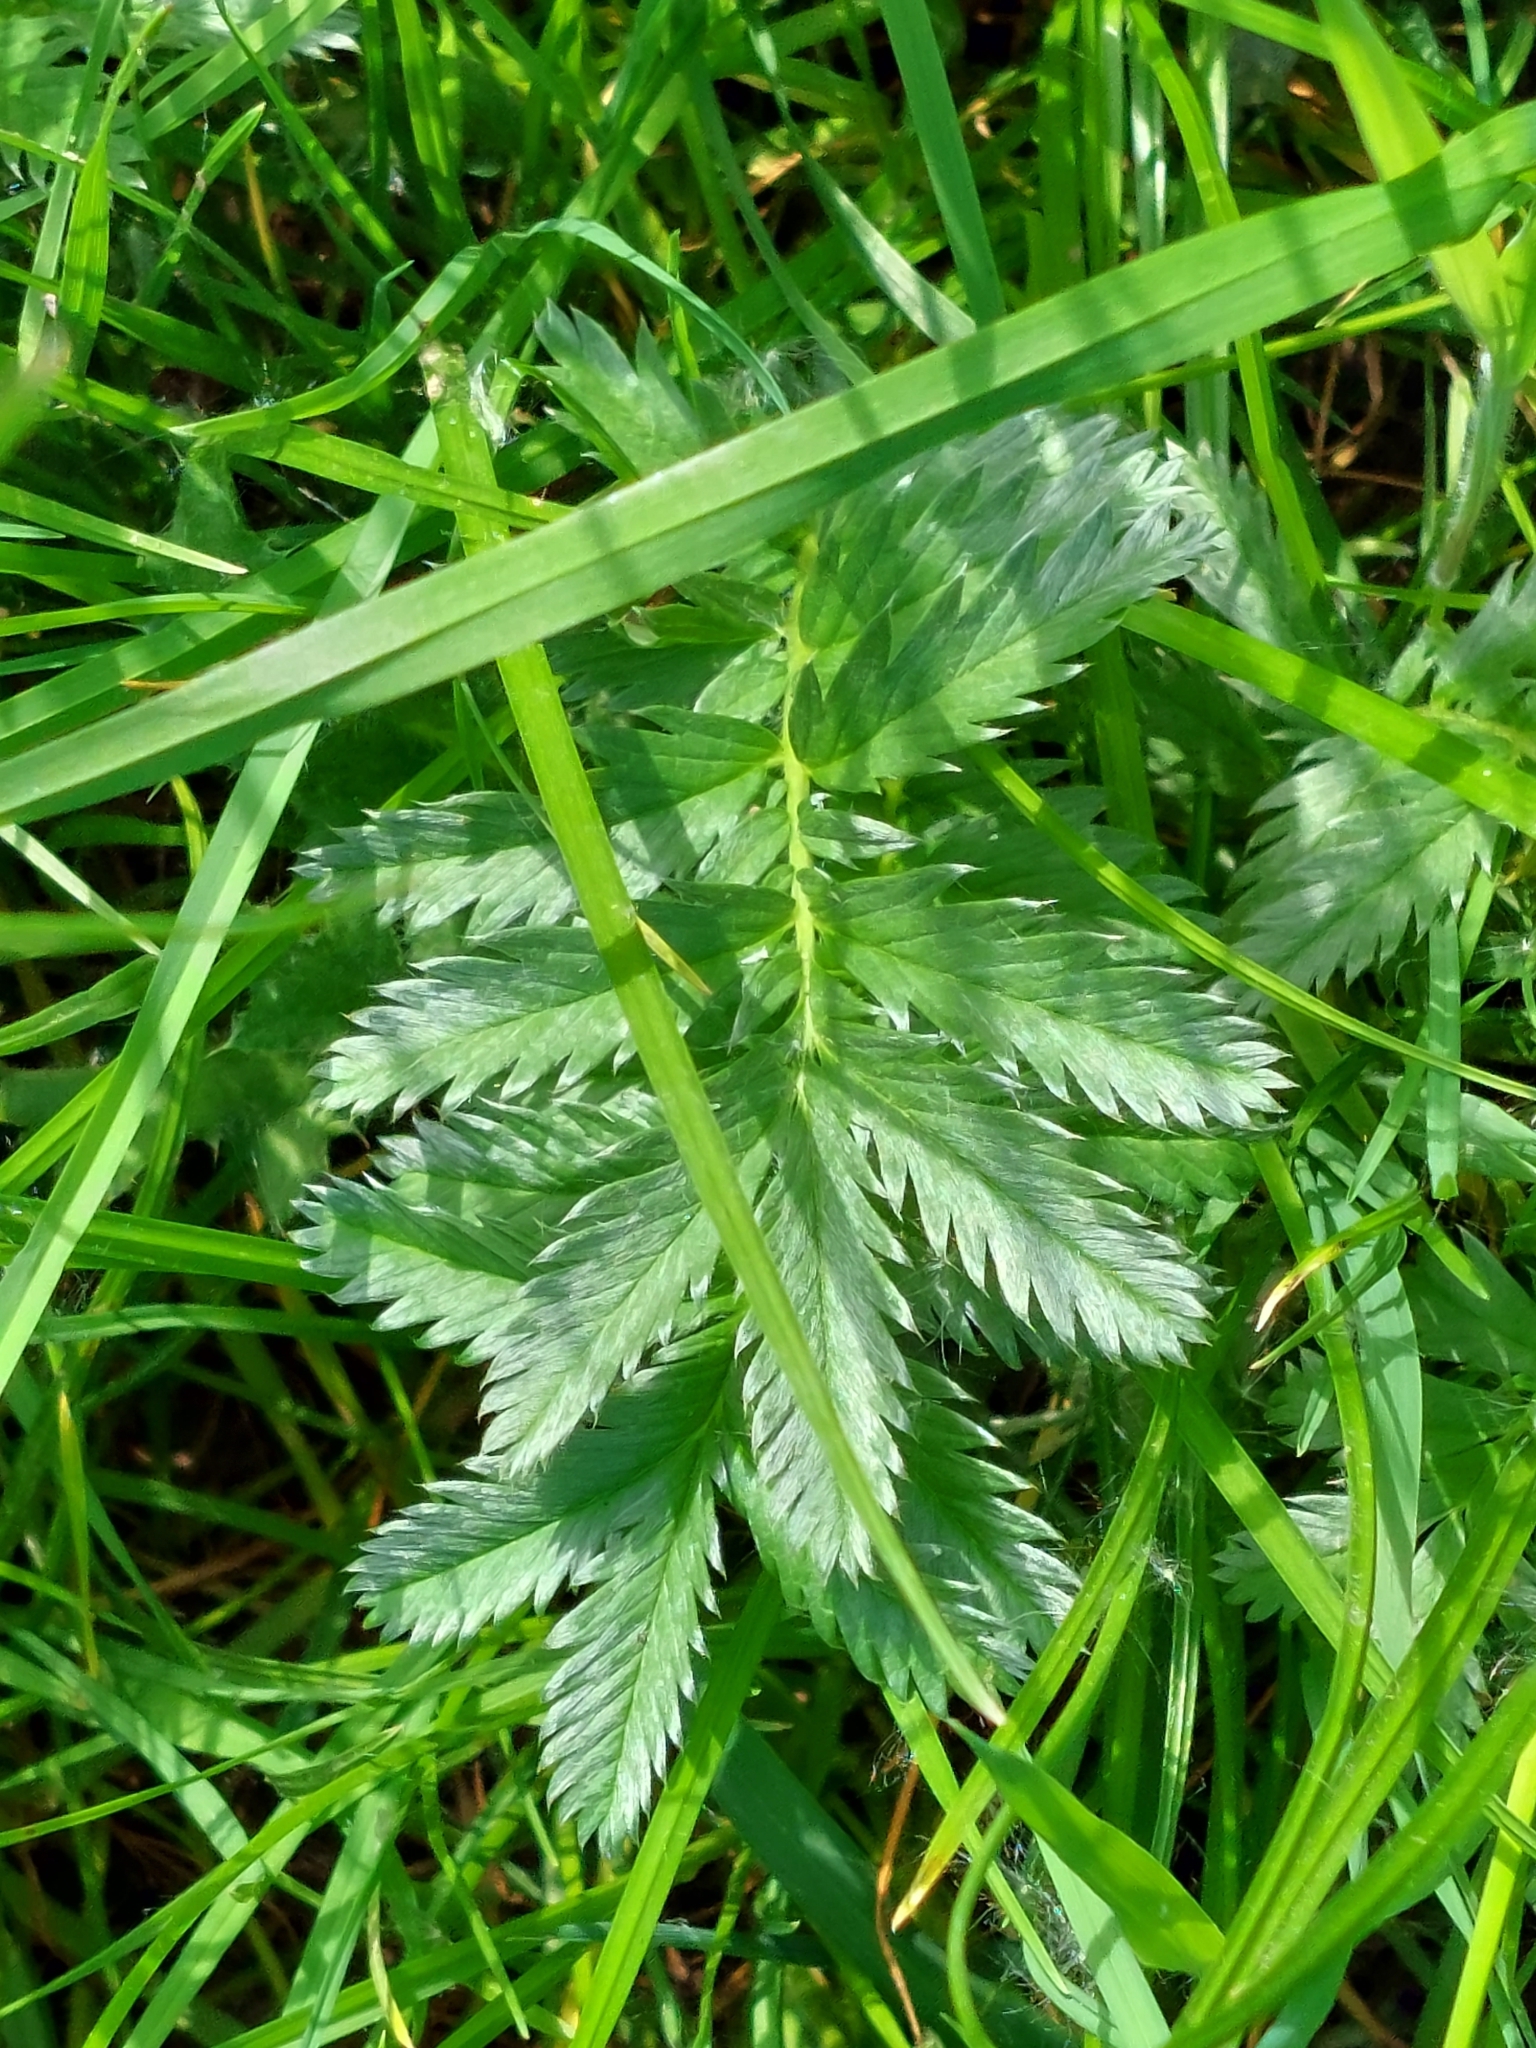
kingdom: Plantae
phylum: Tracheophyta
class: Magnoliopsida
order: Rosales
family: Rosaceae
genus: Argentina
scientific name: Argentina anserina
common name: Common silverweed
